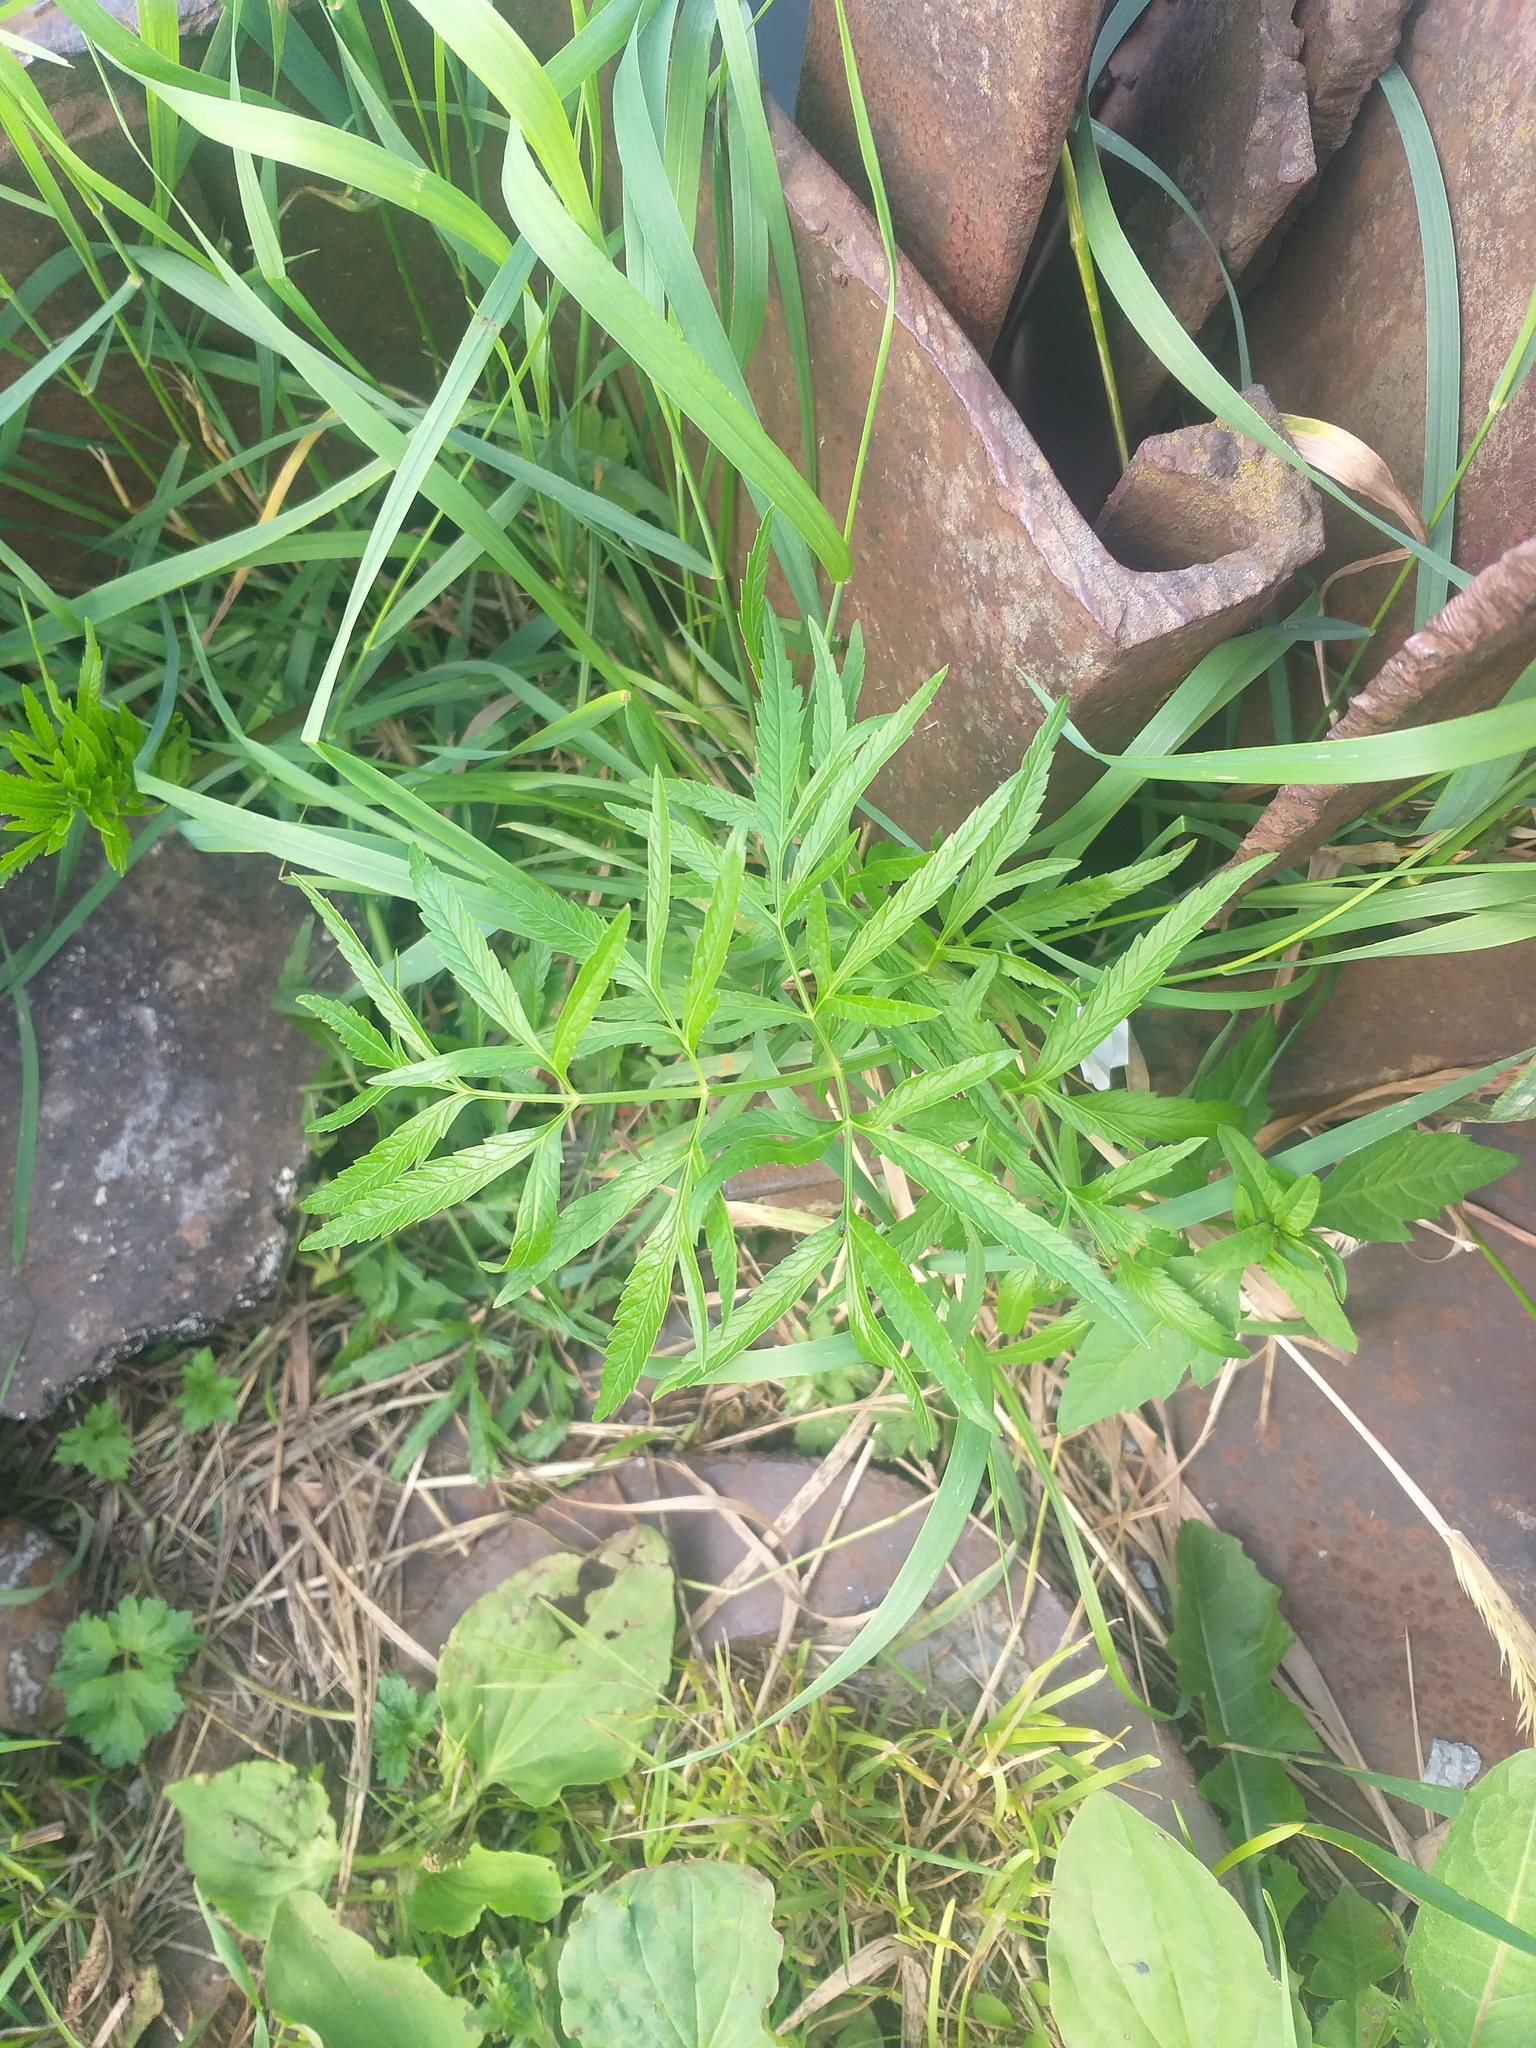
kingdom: Plantae
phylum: Tracheophyta
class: Magnoliopsida
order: Apiales
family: Apiaceae
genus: Cicuta
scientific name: Cicuta virosa
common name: Cowbane
